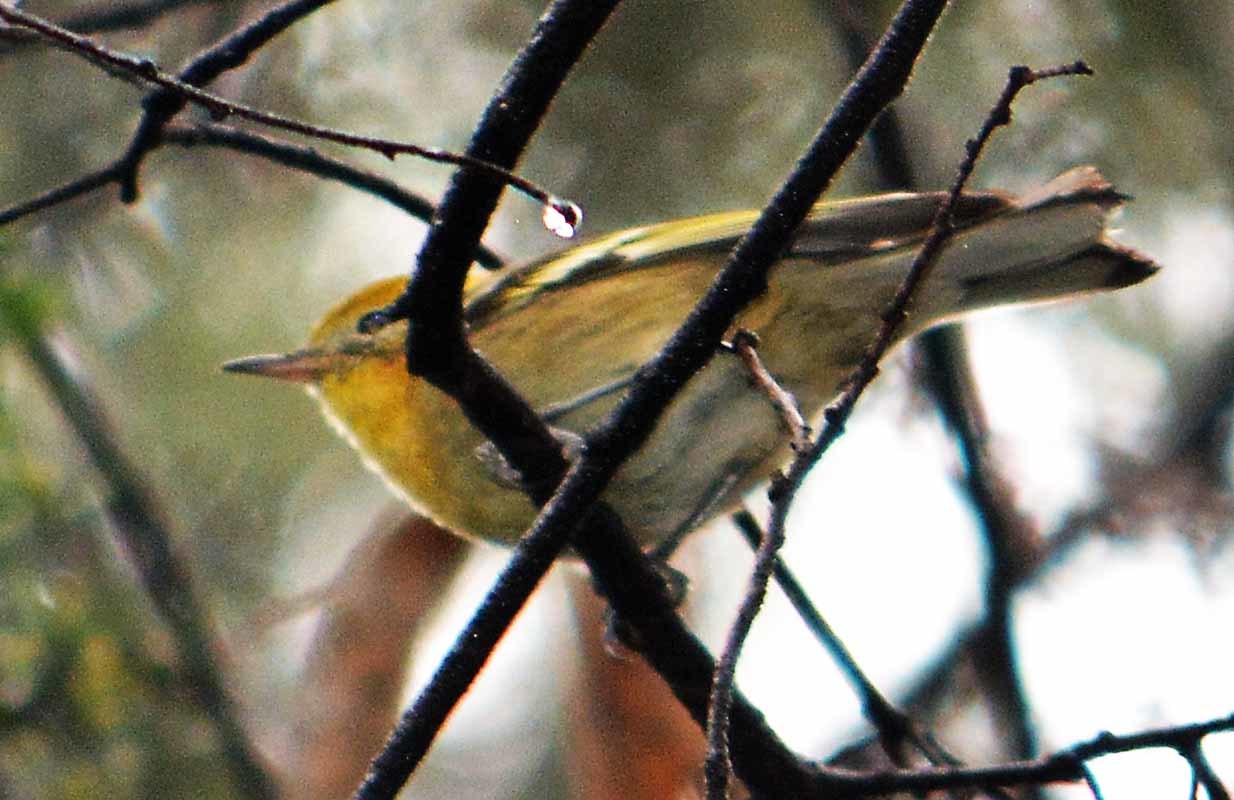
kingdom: Animalia
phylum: Chordata
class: Aves
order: Passeriformes
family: Peucedramidae
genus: Peucedramus
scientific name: Peucedramus taeniatus
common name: Olive warbler
